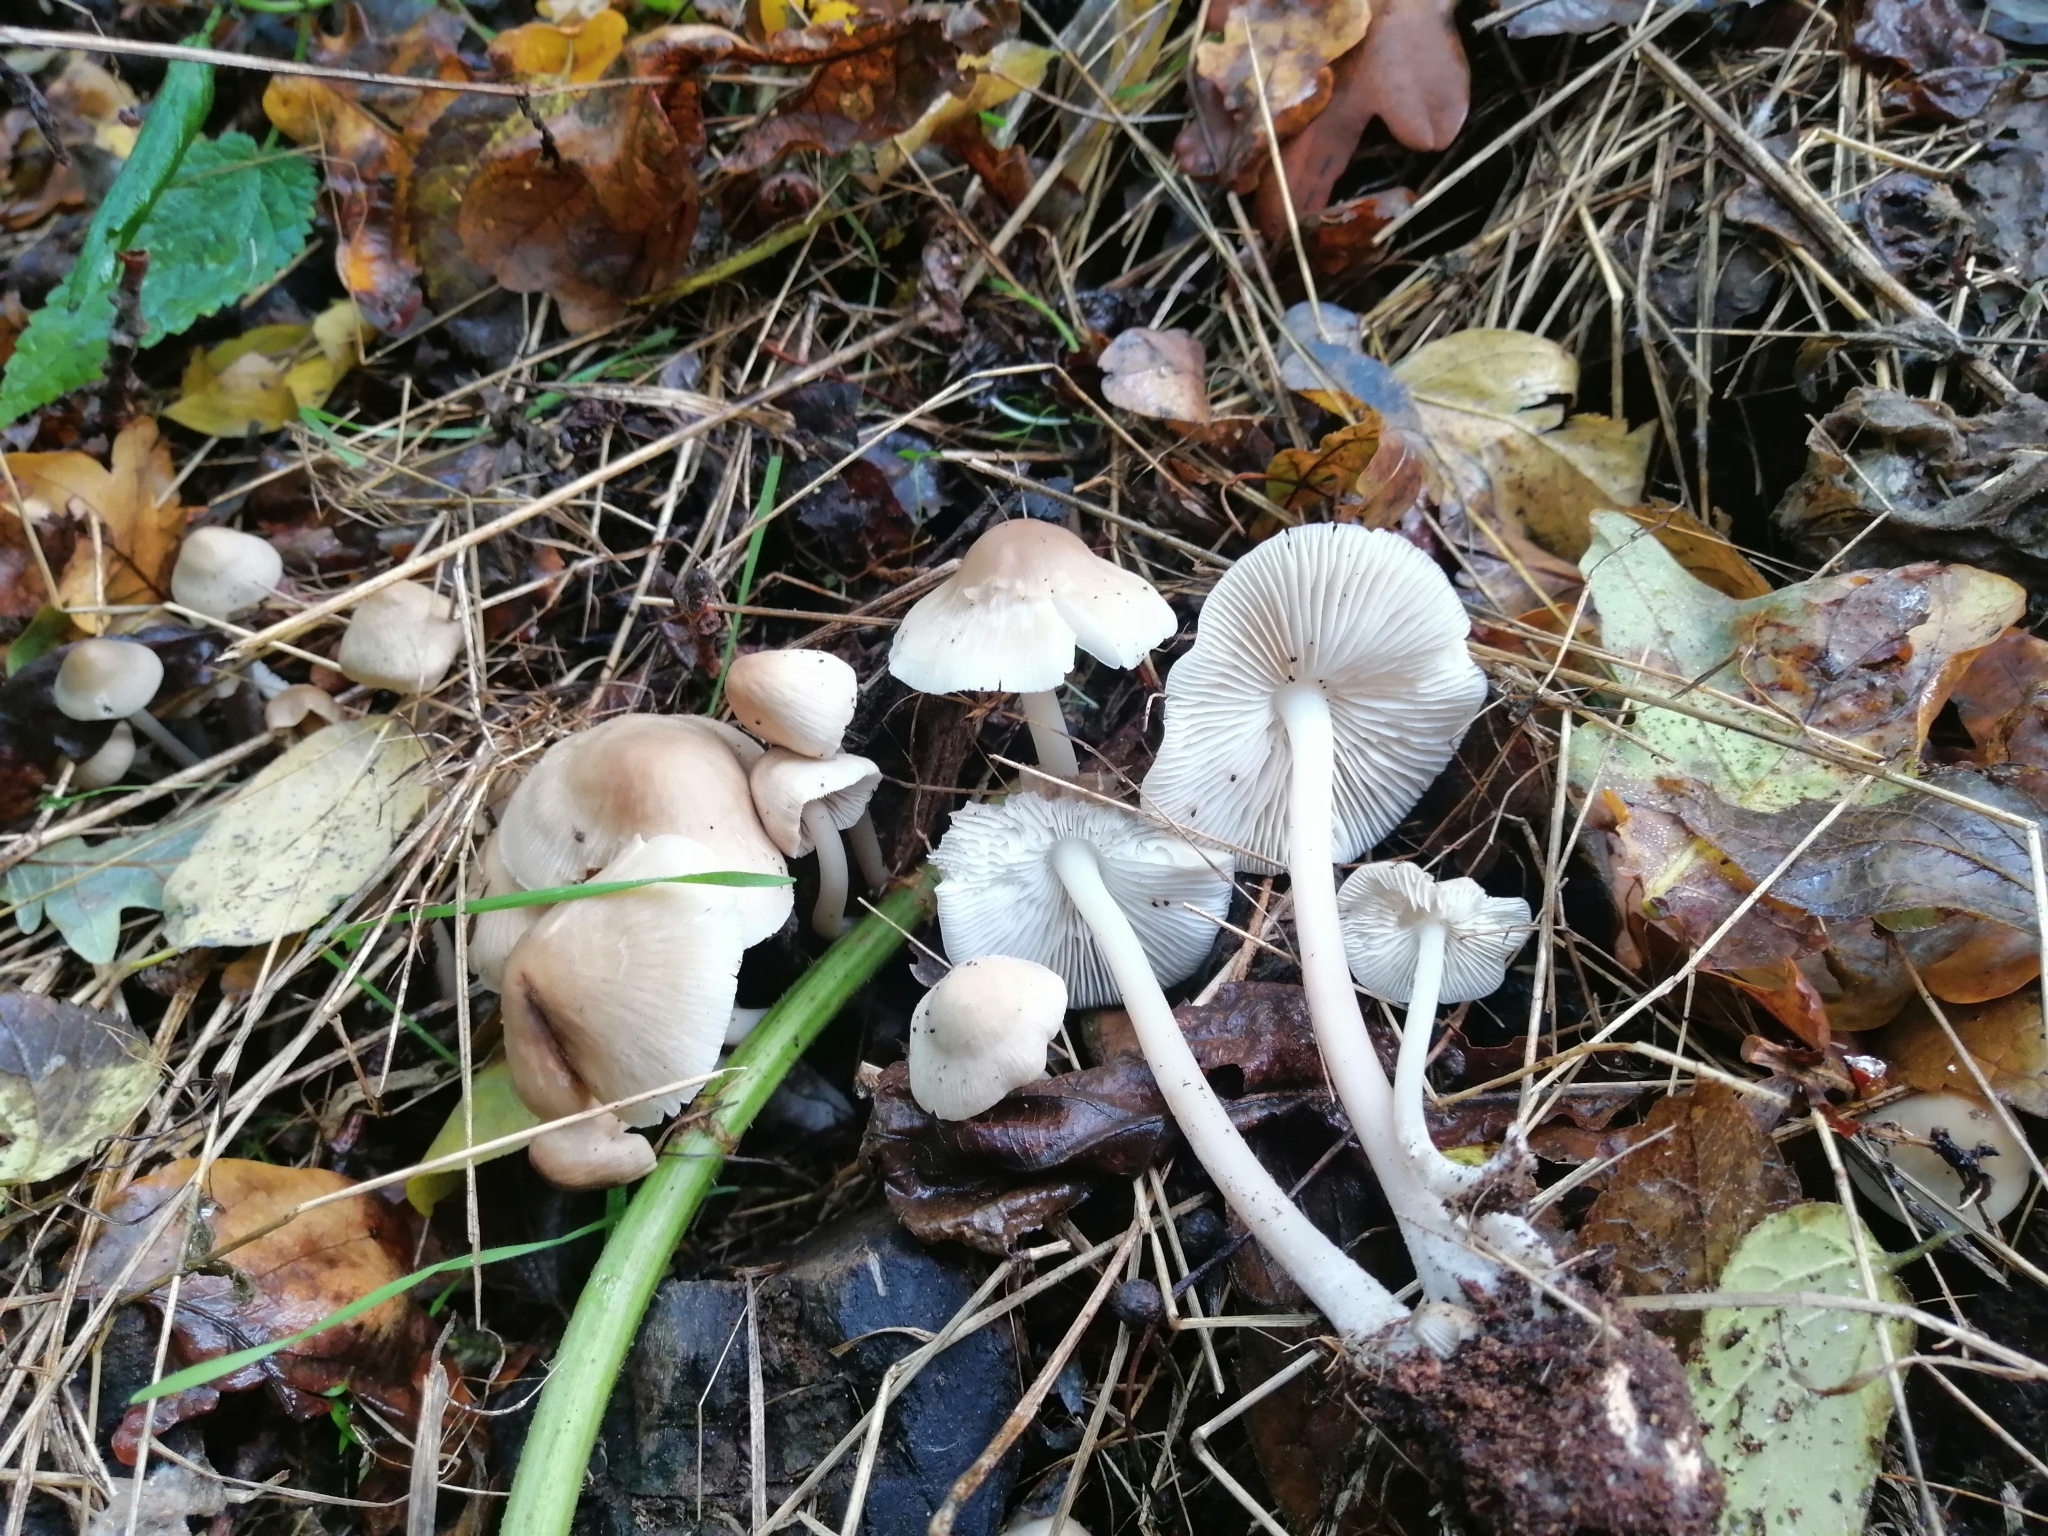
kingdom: Fungi
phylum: Basidiomycota
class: Agaricomycetes
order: Agaricales
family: Mycenaceae
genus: Mycena
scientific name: Mycena galericulata
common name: Bonnet mycena
